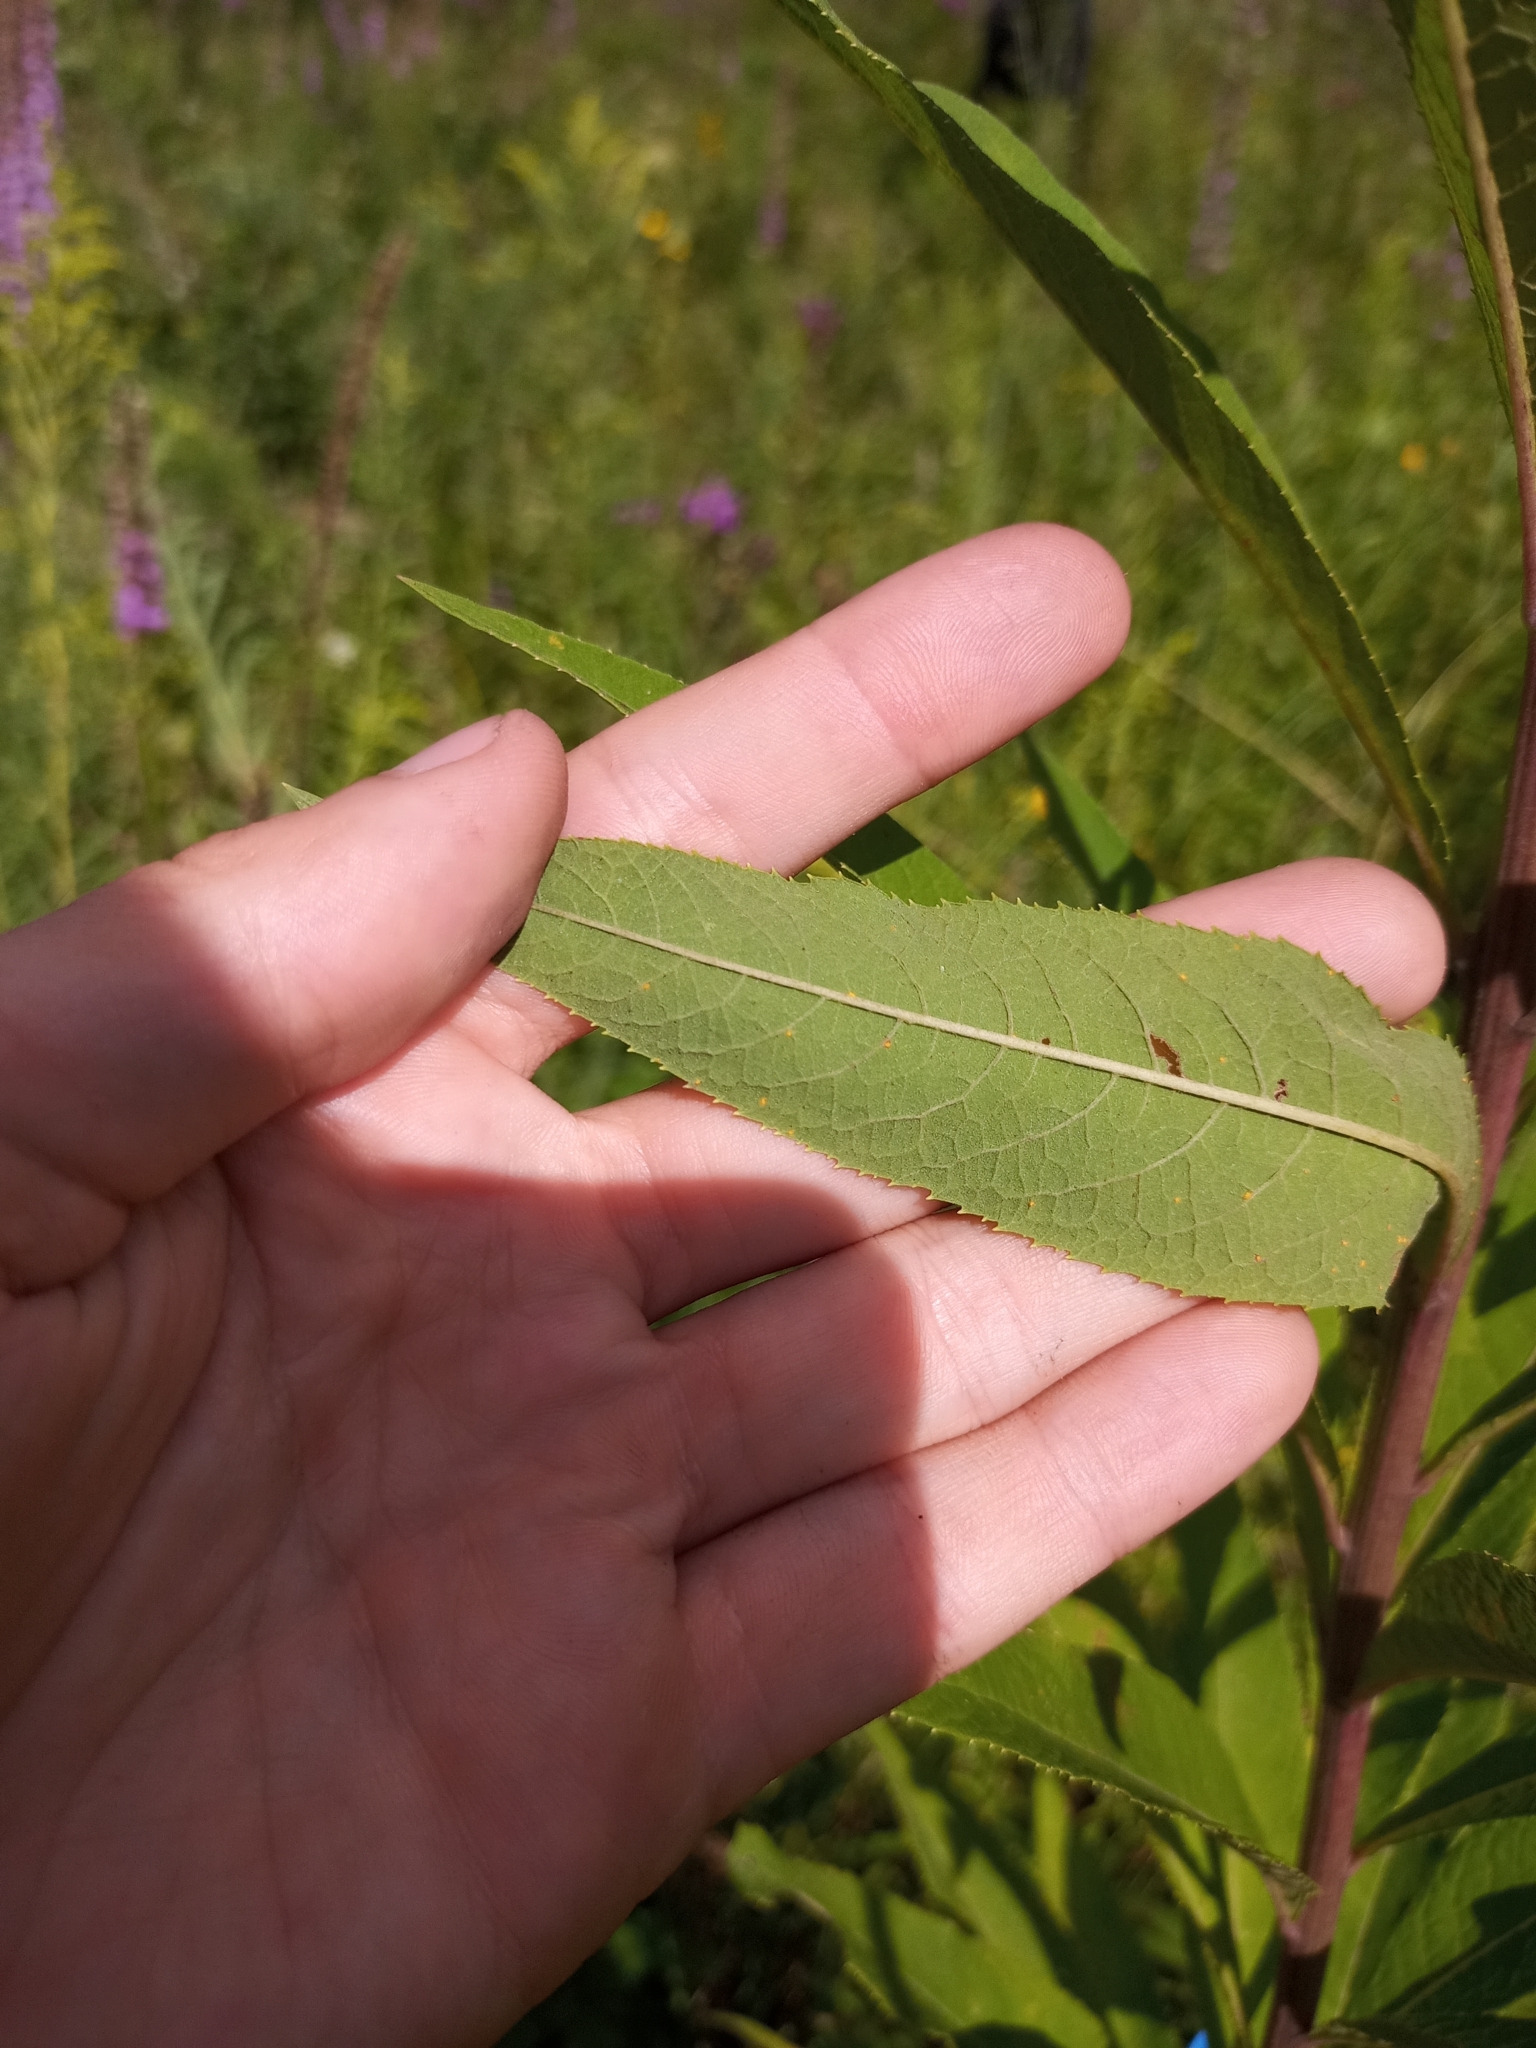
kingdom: Plantae
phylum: Tracheophyta
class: Magnoliopsida
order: Asterales
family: Asteraceae
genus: Vernonia
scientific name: Vernonia gigantea
